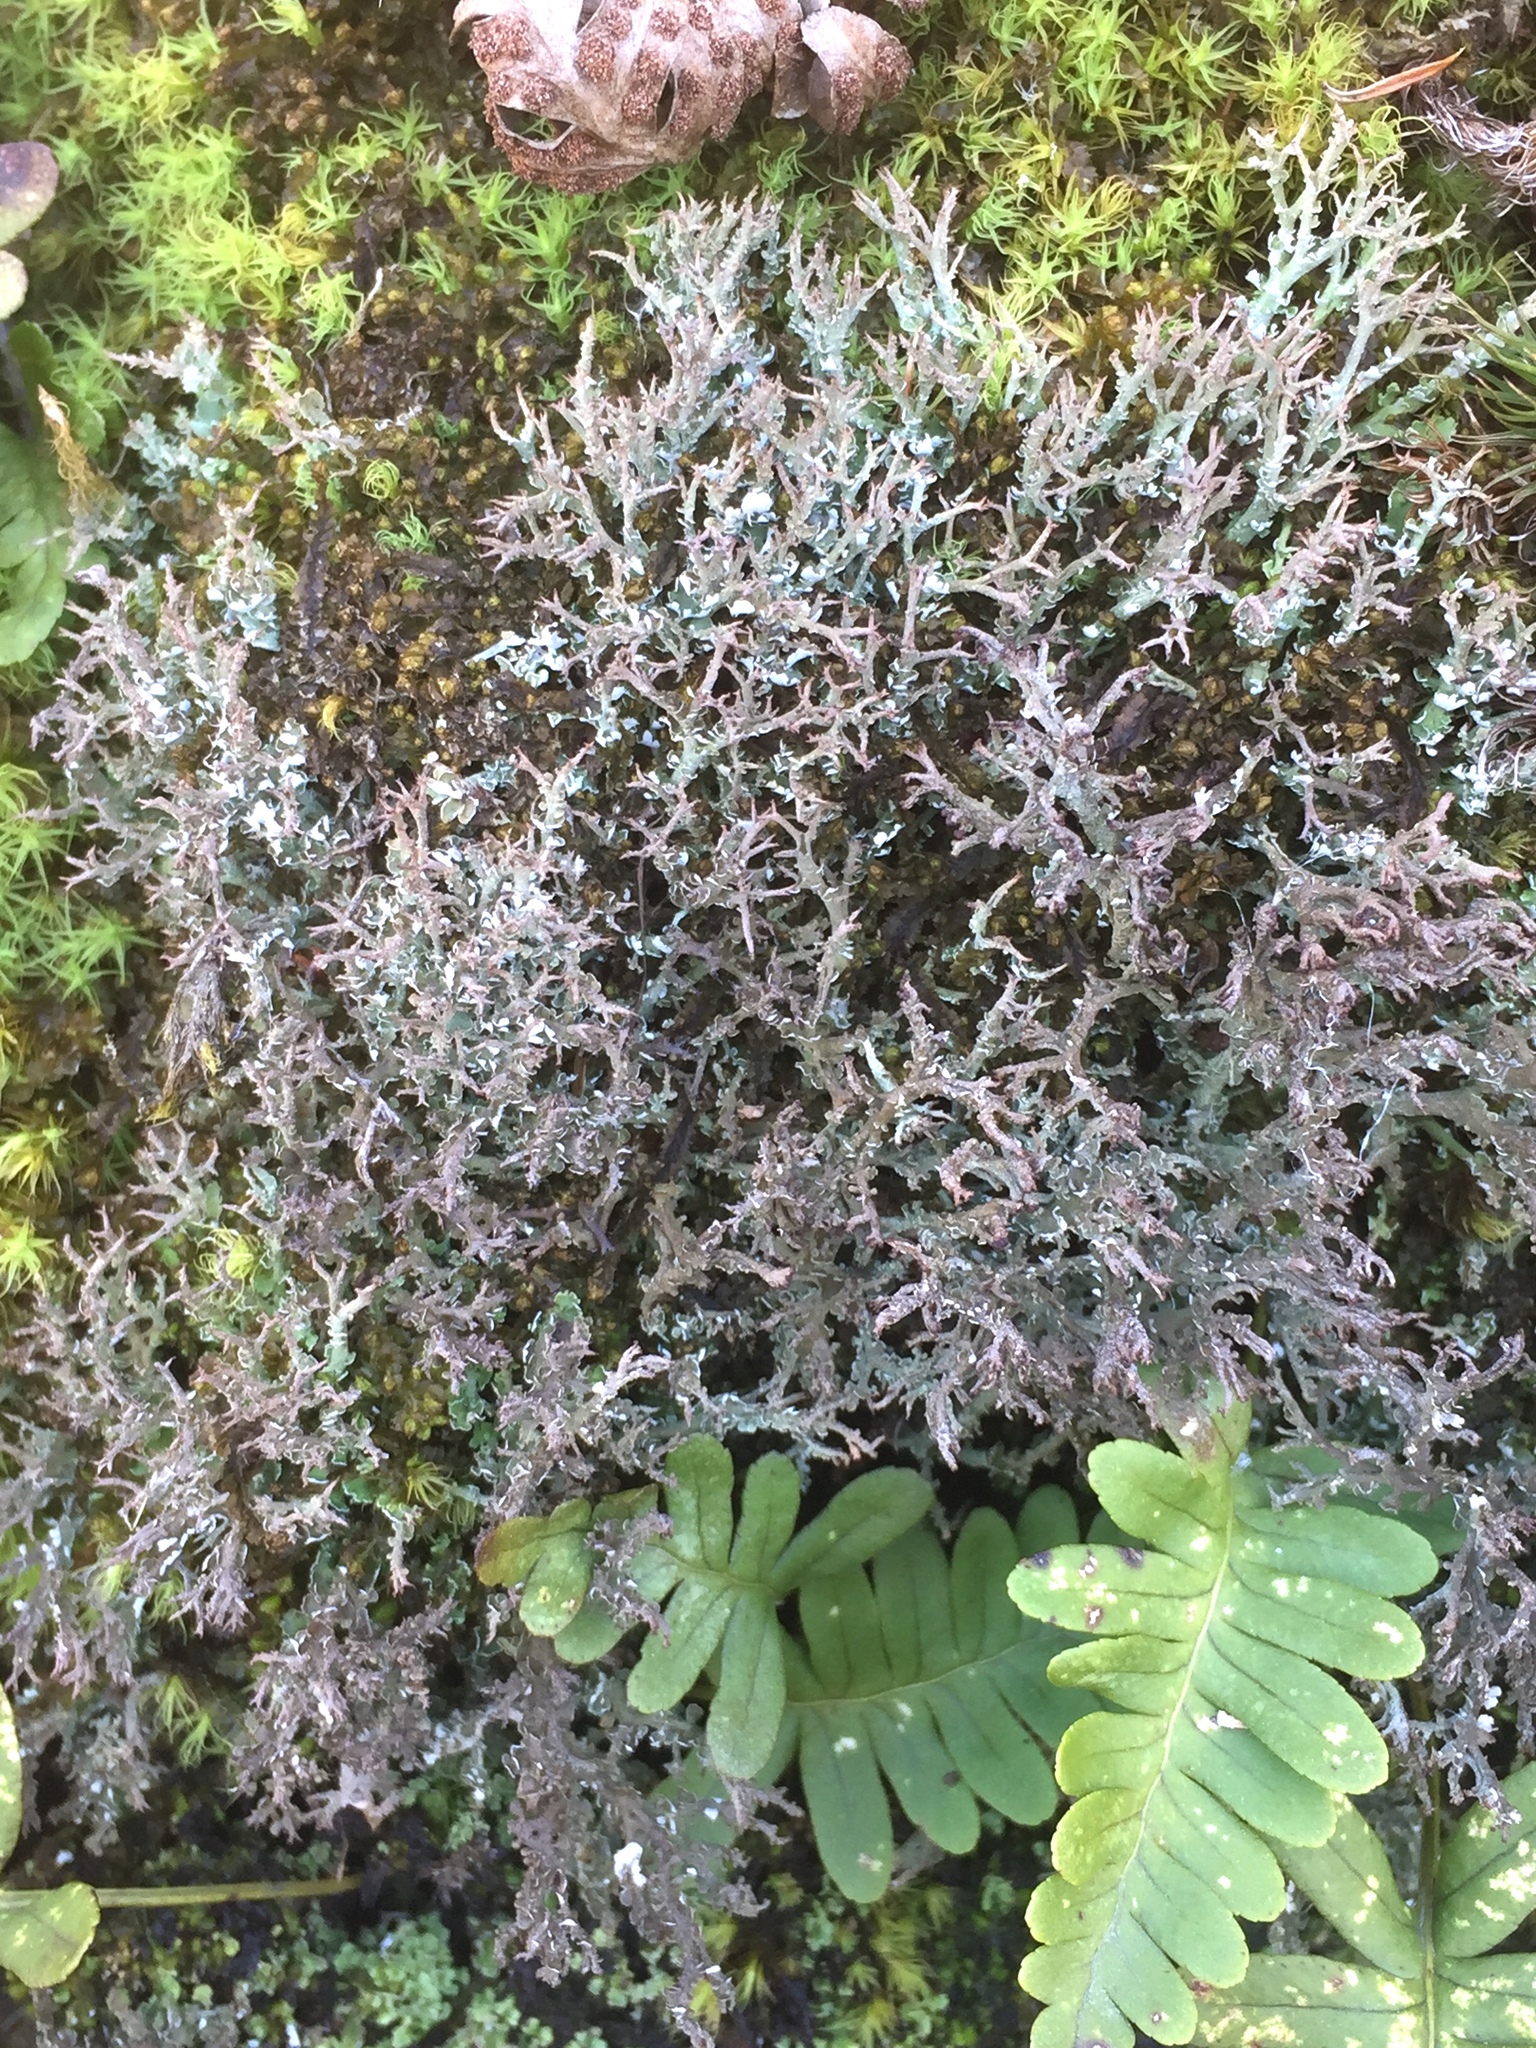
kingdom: Fungi
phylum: Ascomycota
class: Lecanoromycetes
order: Lecanorales
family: Cladoniaceae
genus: Cladonia
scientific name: Cladonia furcata
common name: Many-forked cladonia
